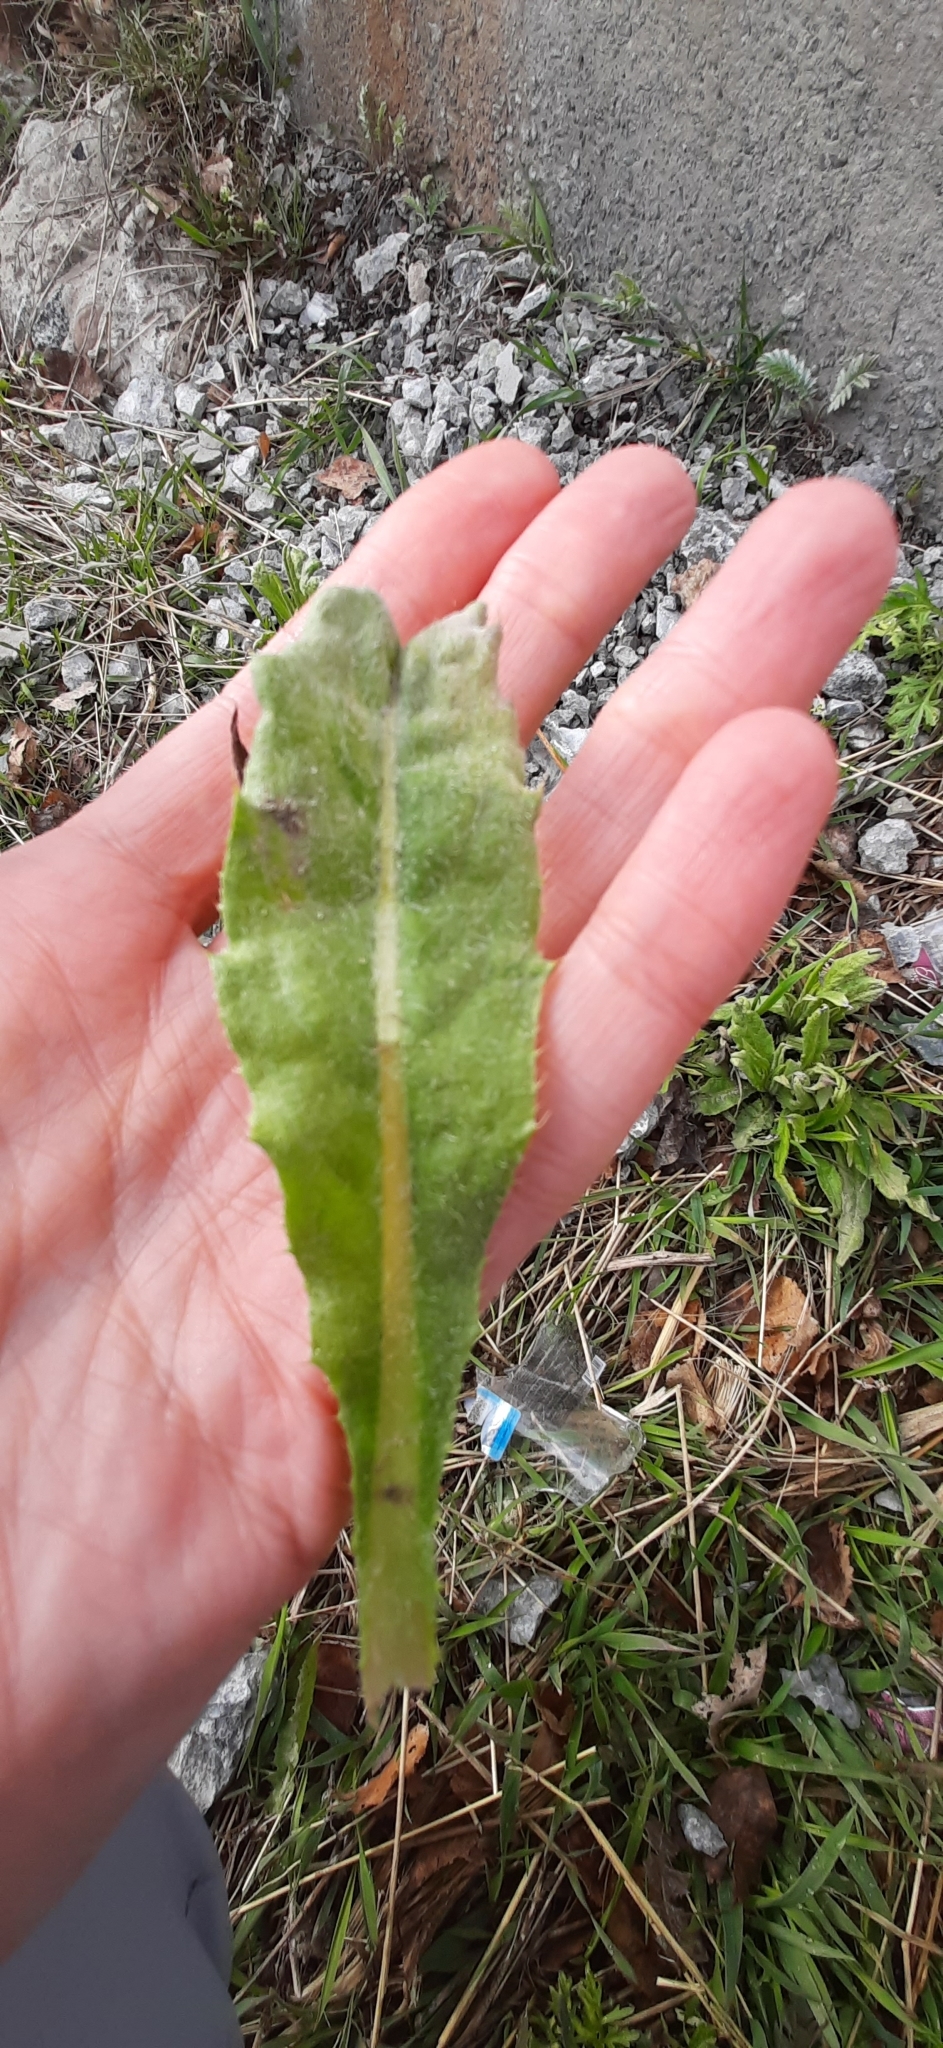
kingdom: Plantae
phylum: Tracheophyta
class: Magnoliopsida
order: Asterales
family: Asteraceae
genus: Cirsium
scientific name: Cirsium arvense
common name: Creeping thistle
